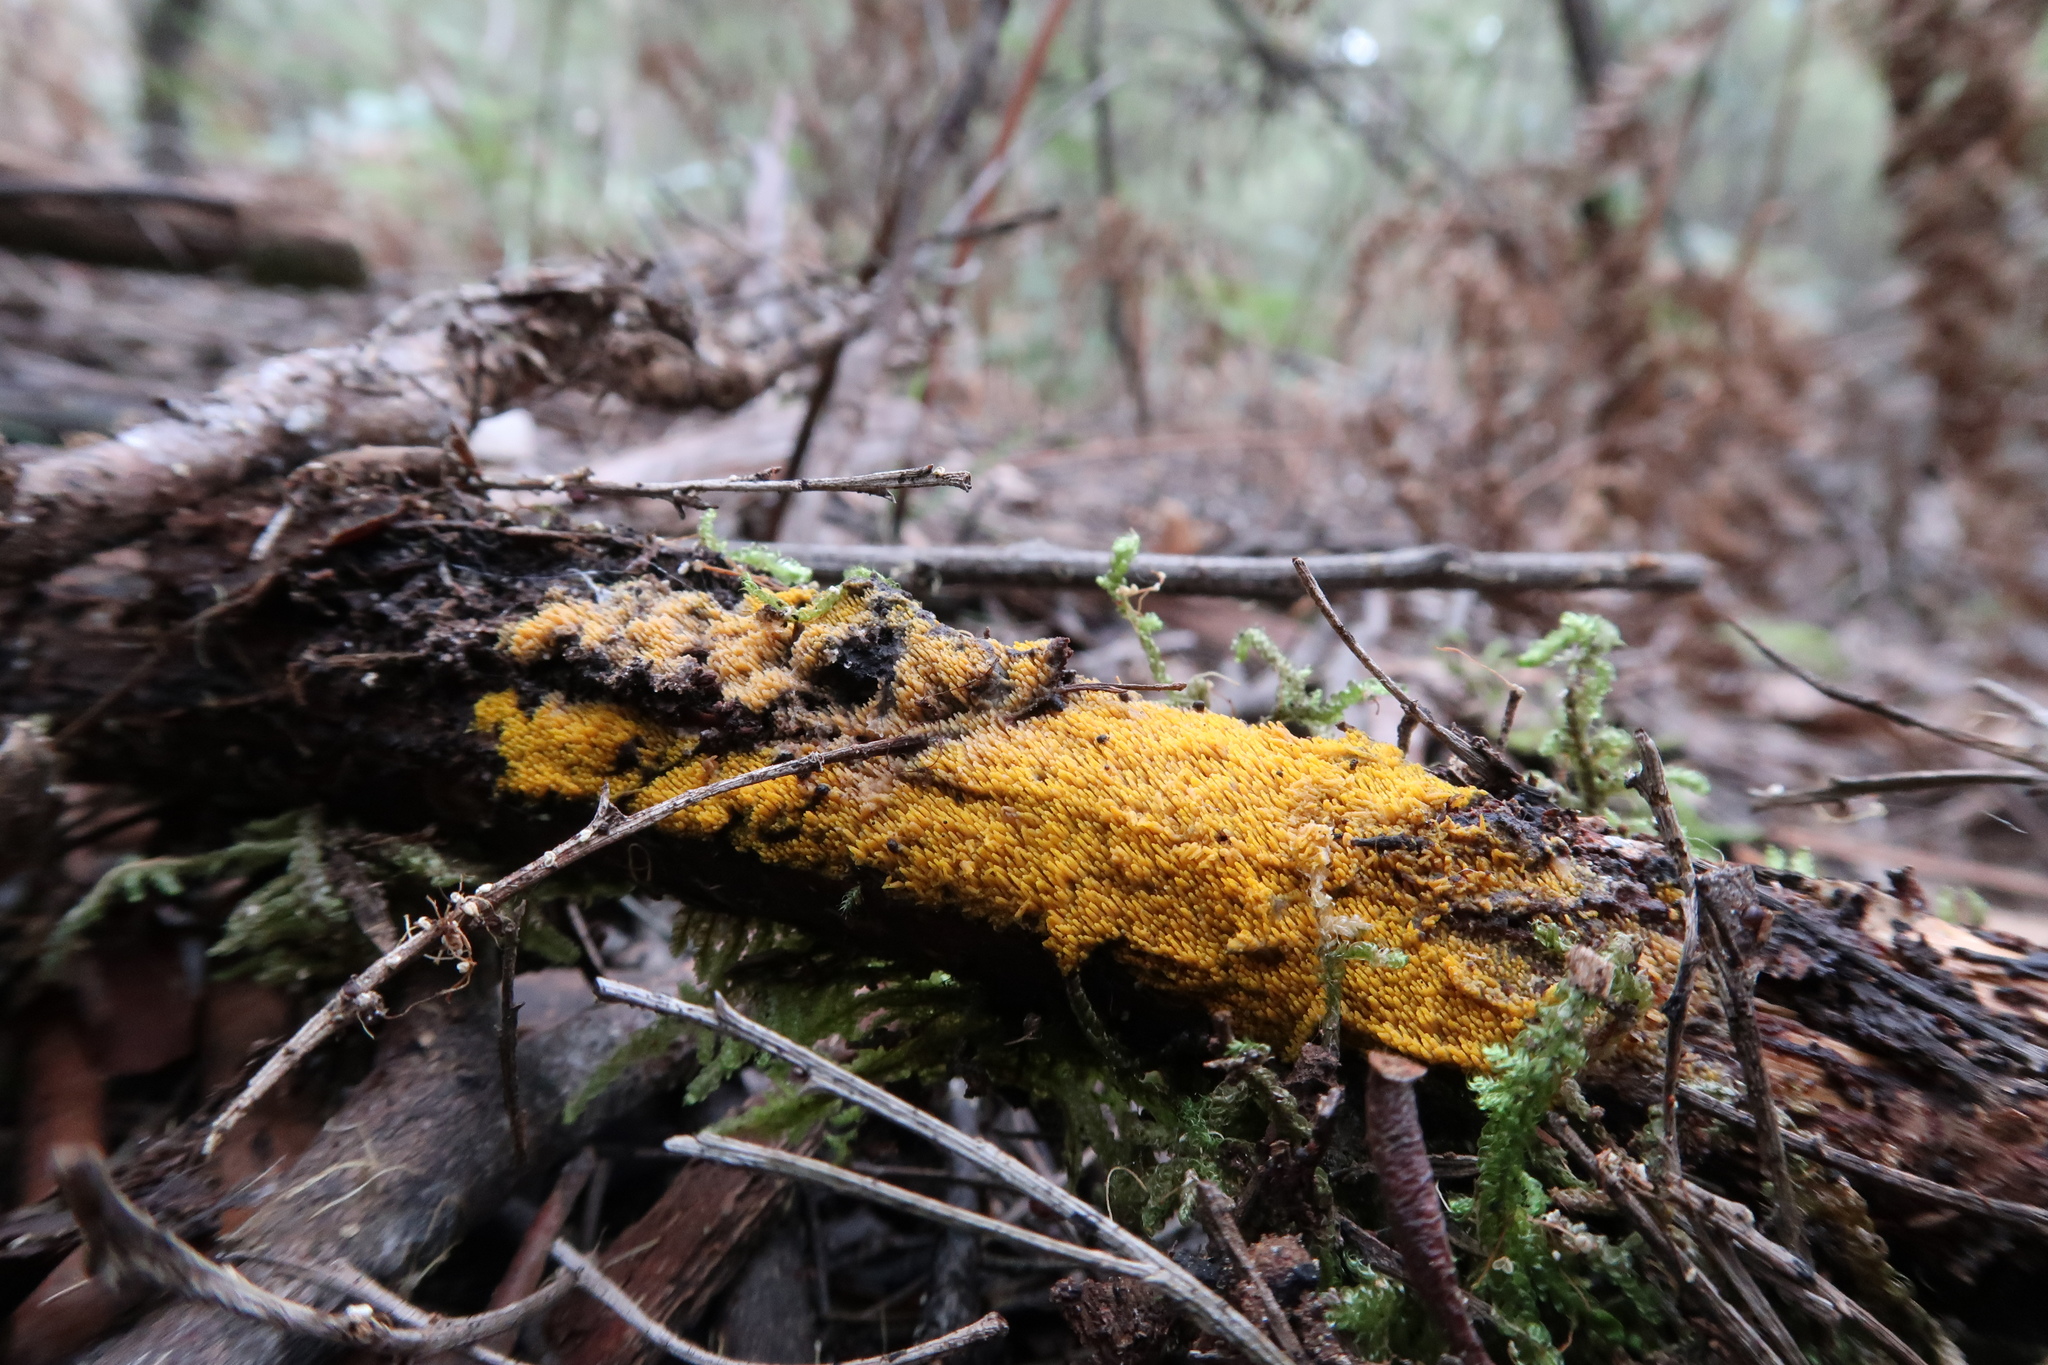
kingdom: Fungi
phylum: Basidiomycota
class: Agaricomycetes
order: Polyporales
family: Meruliaceae
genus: Phlebia
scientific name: Phlebia subceracea
